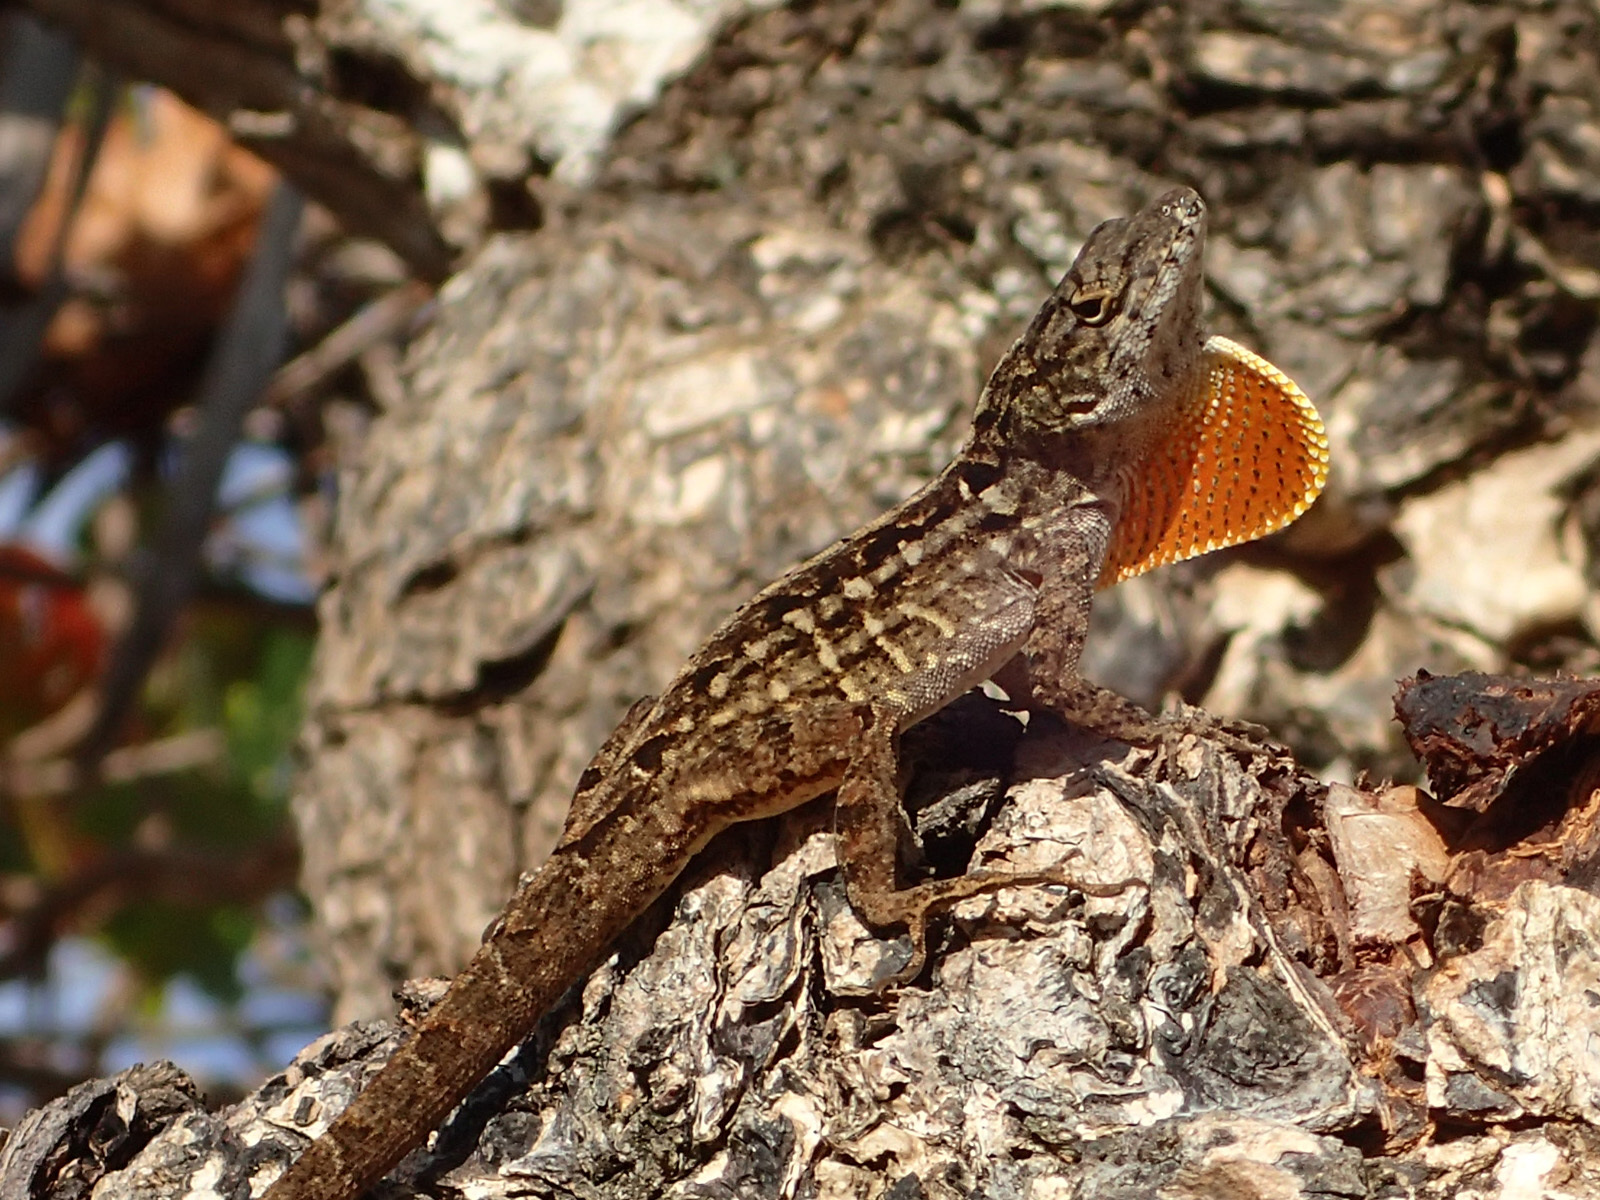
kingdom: Animalia
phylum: Chordata
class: Squamata
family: Dactyloidae
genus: Anolis
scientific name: Anolis sagrei
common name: Brown anole
